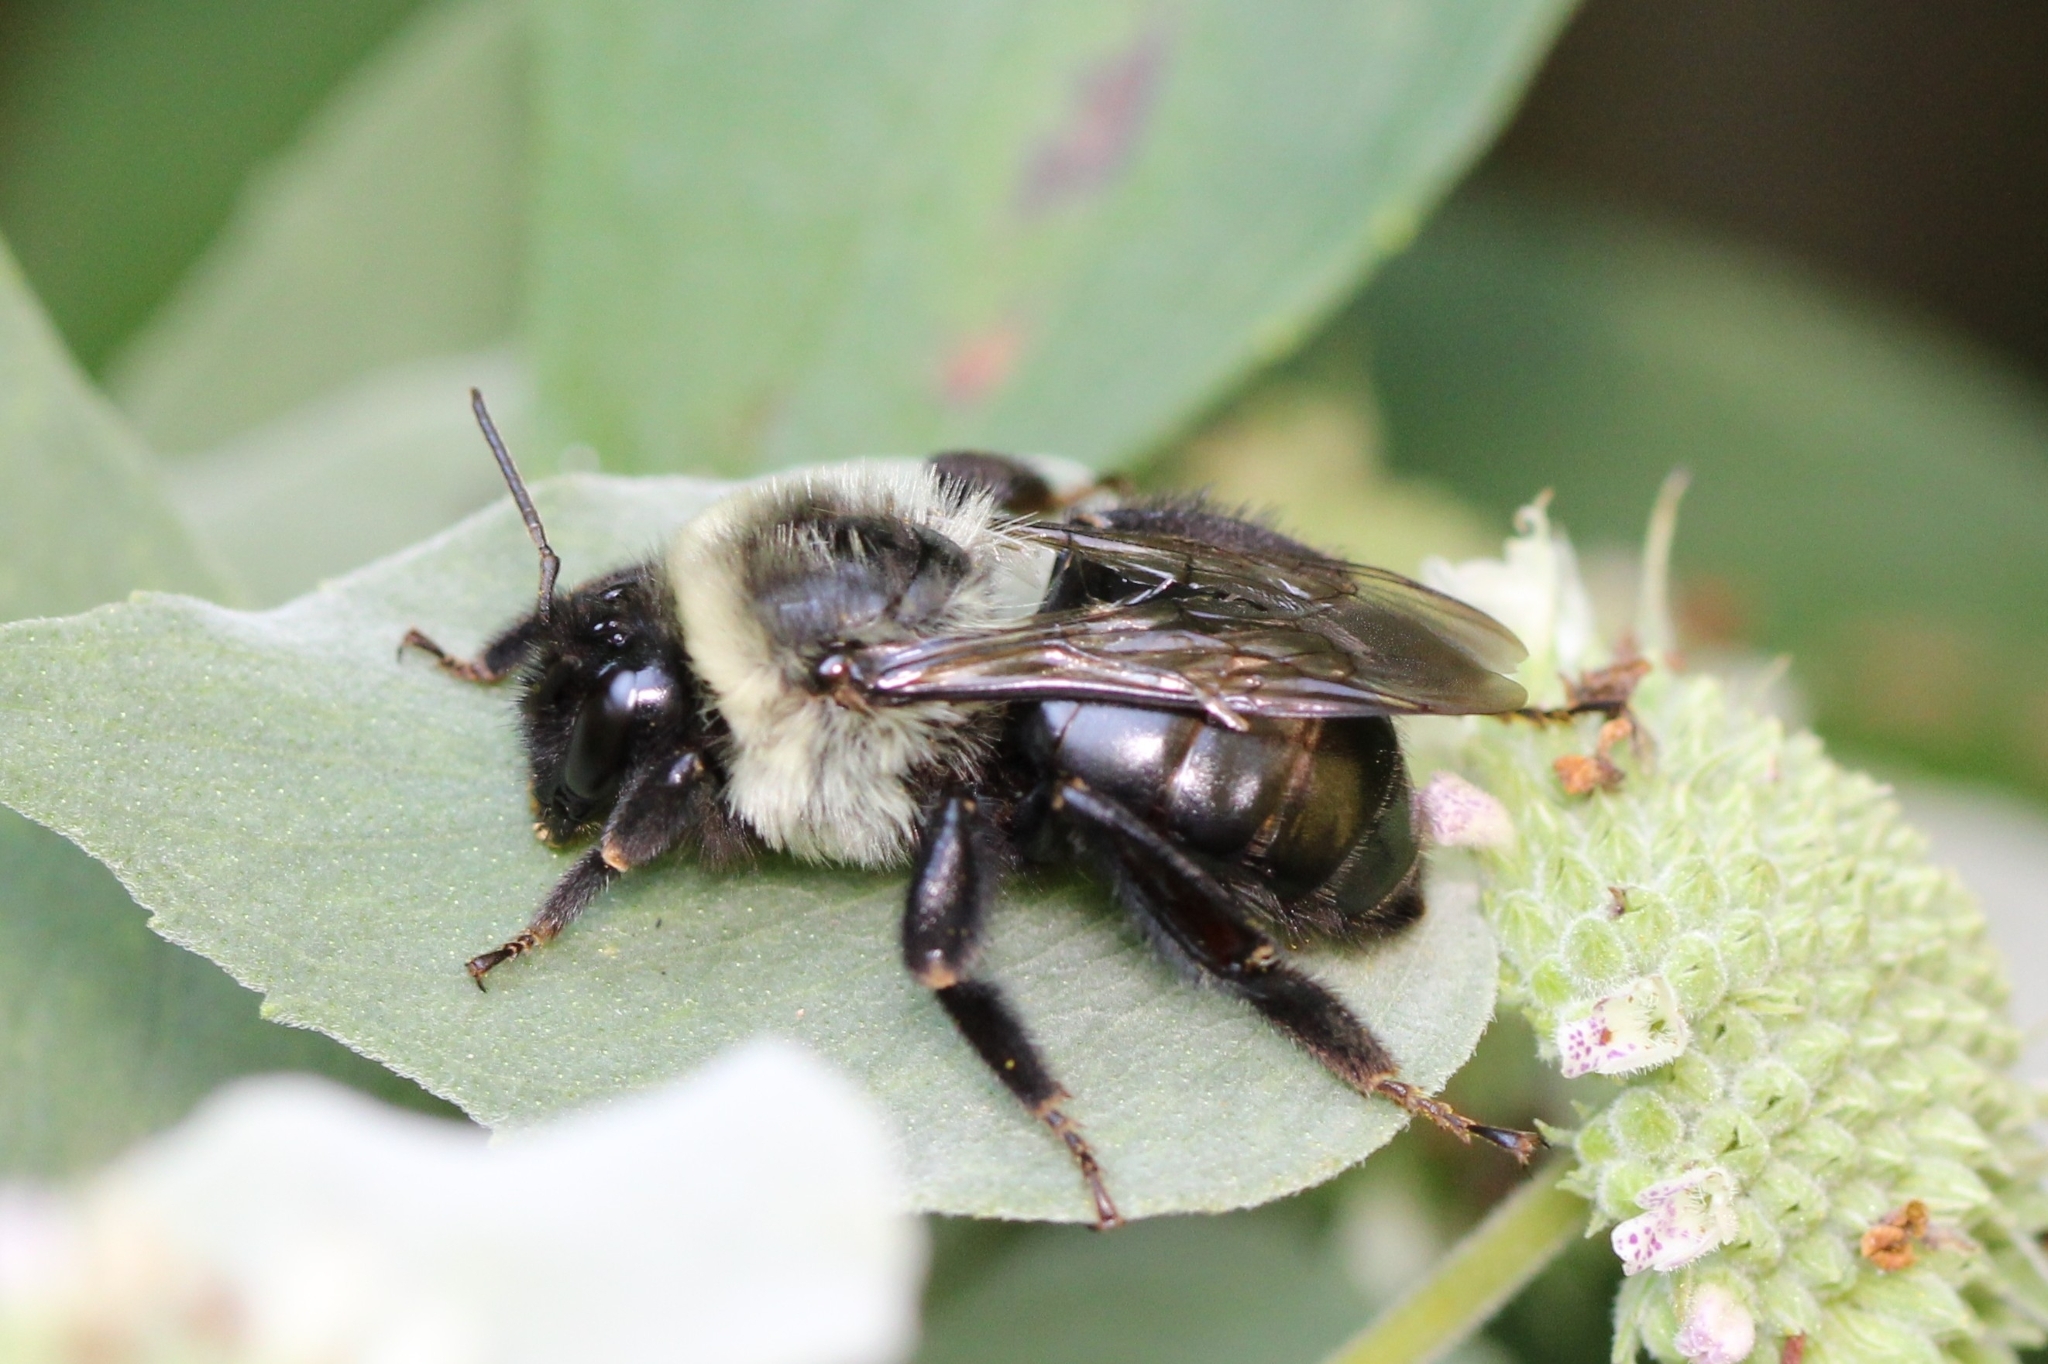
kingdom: Animalia
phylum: Arthropoda
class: Insecta
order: Hymenoptera
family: Apidae
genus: Bombus
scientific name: Bombus impatiens
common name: Common eastern bumble bee
